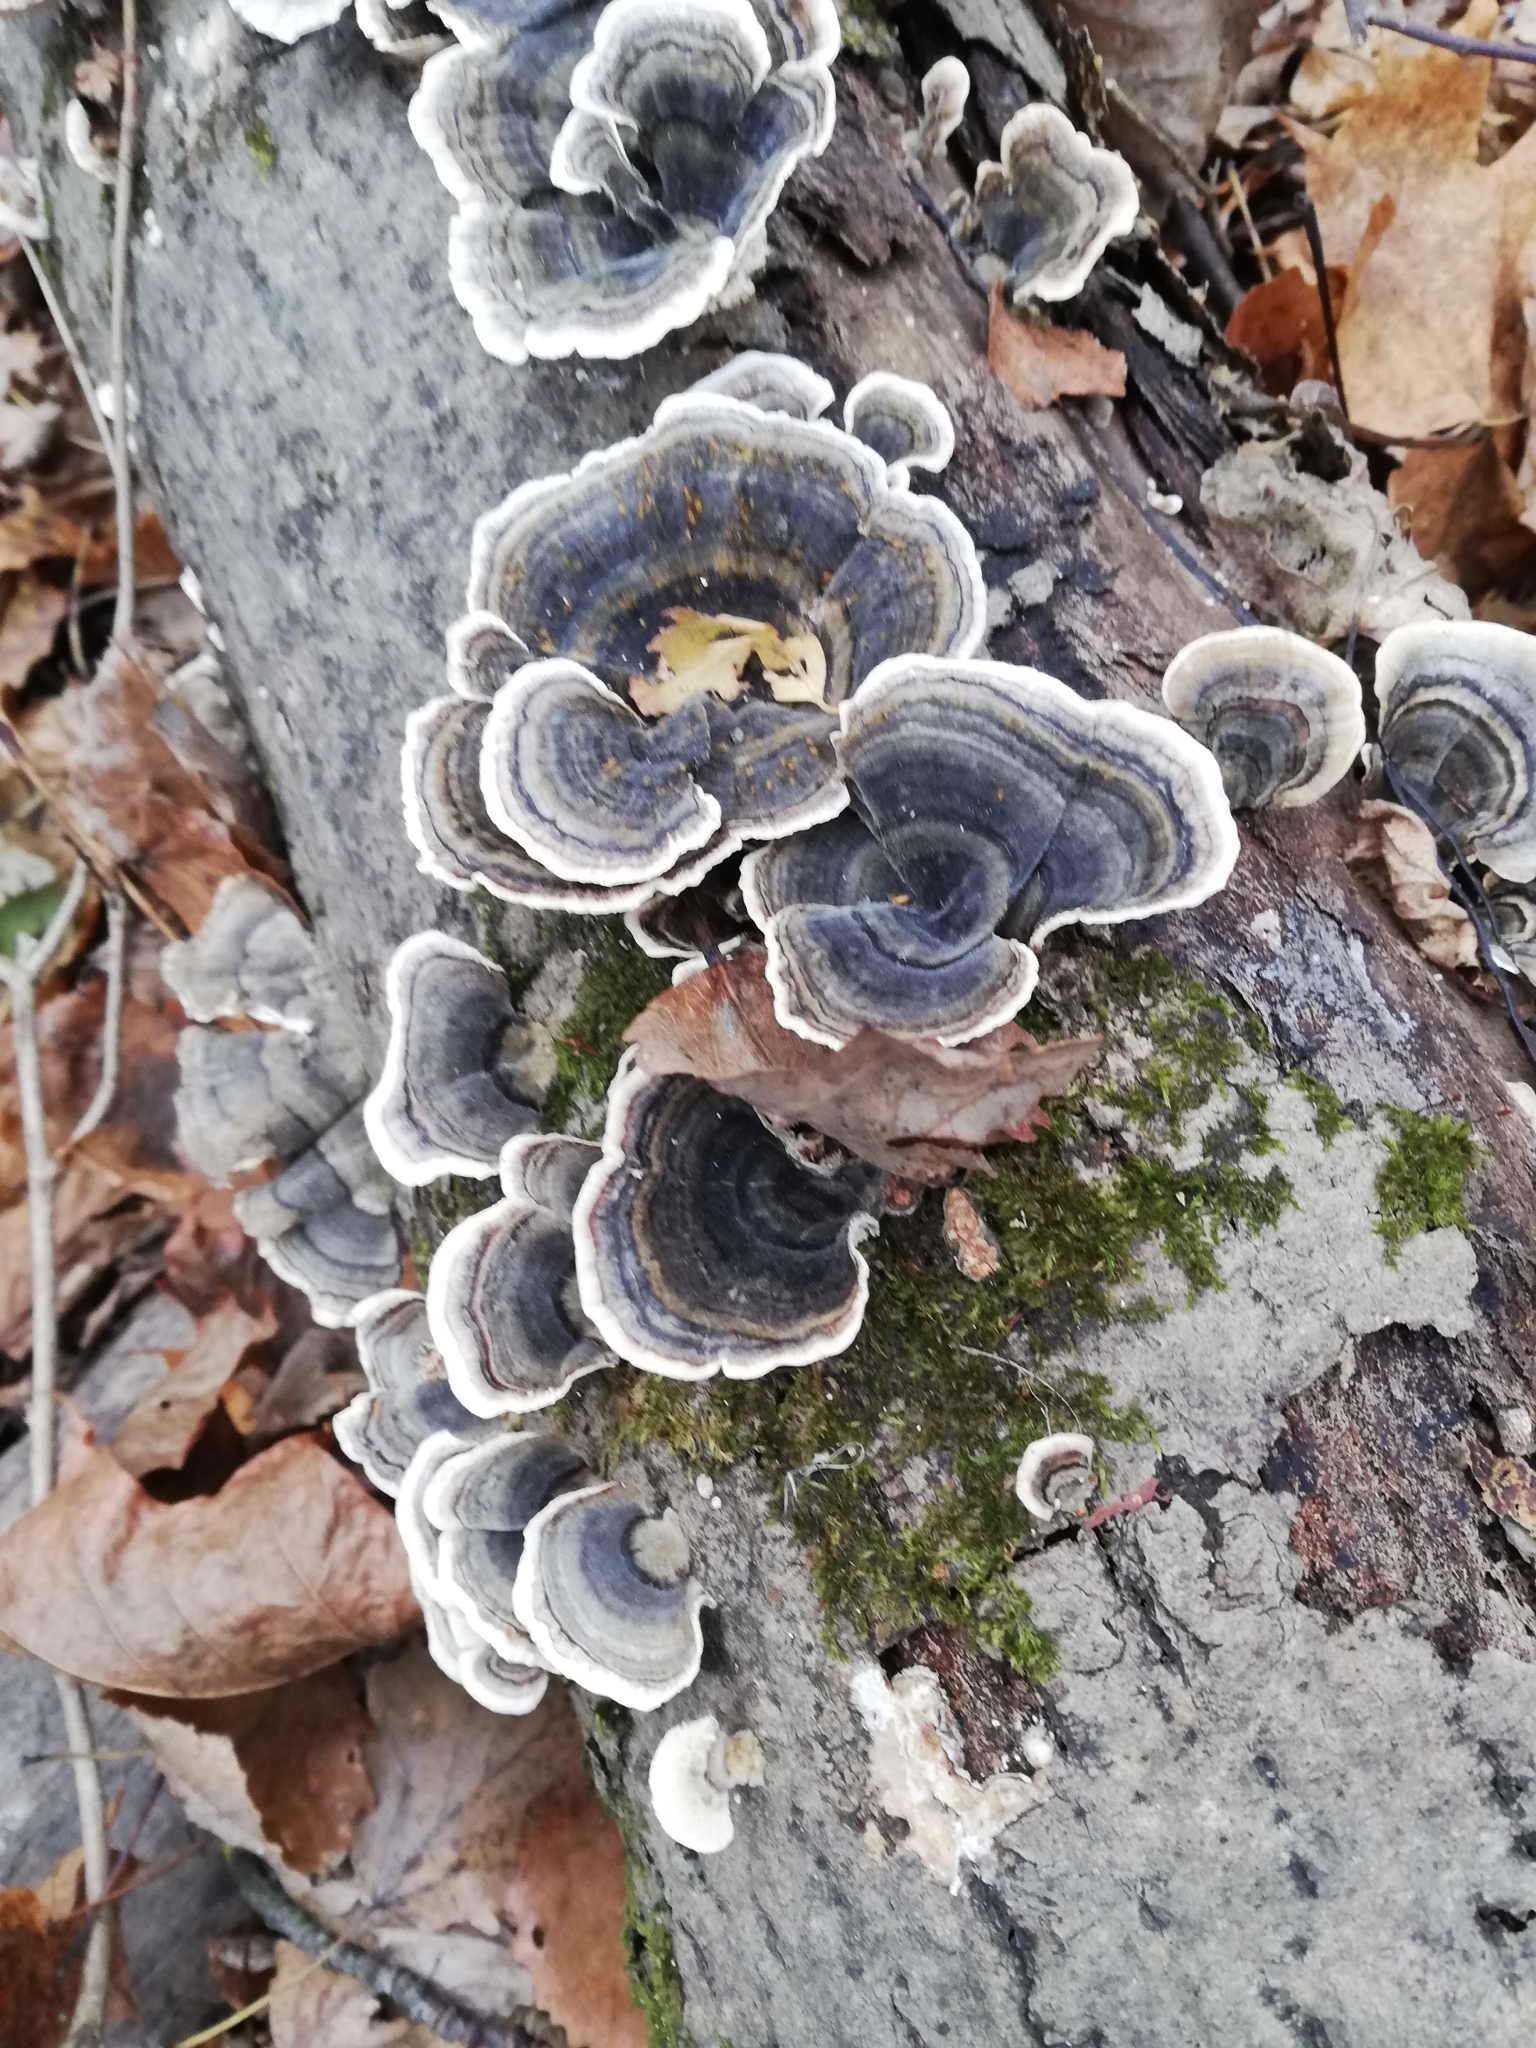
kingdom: Fungi
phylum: Basidiomycota
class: Agaricomycetes
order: Polyporales
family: Polyporaceae
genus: Trametes
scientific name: Trametes versicolor
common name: Turkeytail
